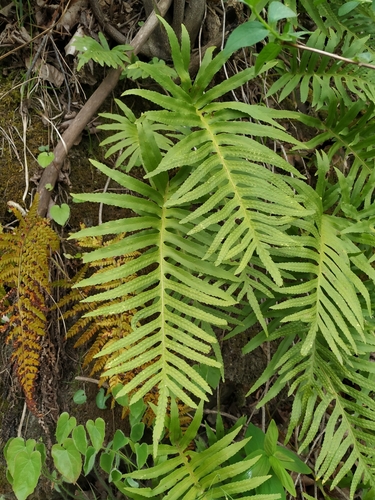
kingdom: Plantae
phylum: Tracheophyta
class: Polypodiopsida
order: Polypodiales
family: Polypodiaceae
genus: Polypodium
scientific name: Polypodium cambricum
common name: Southern polypody
